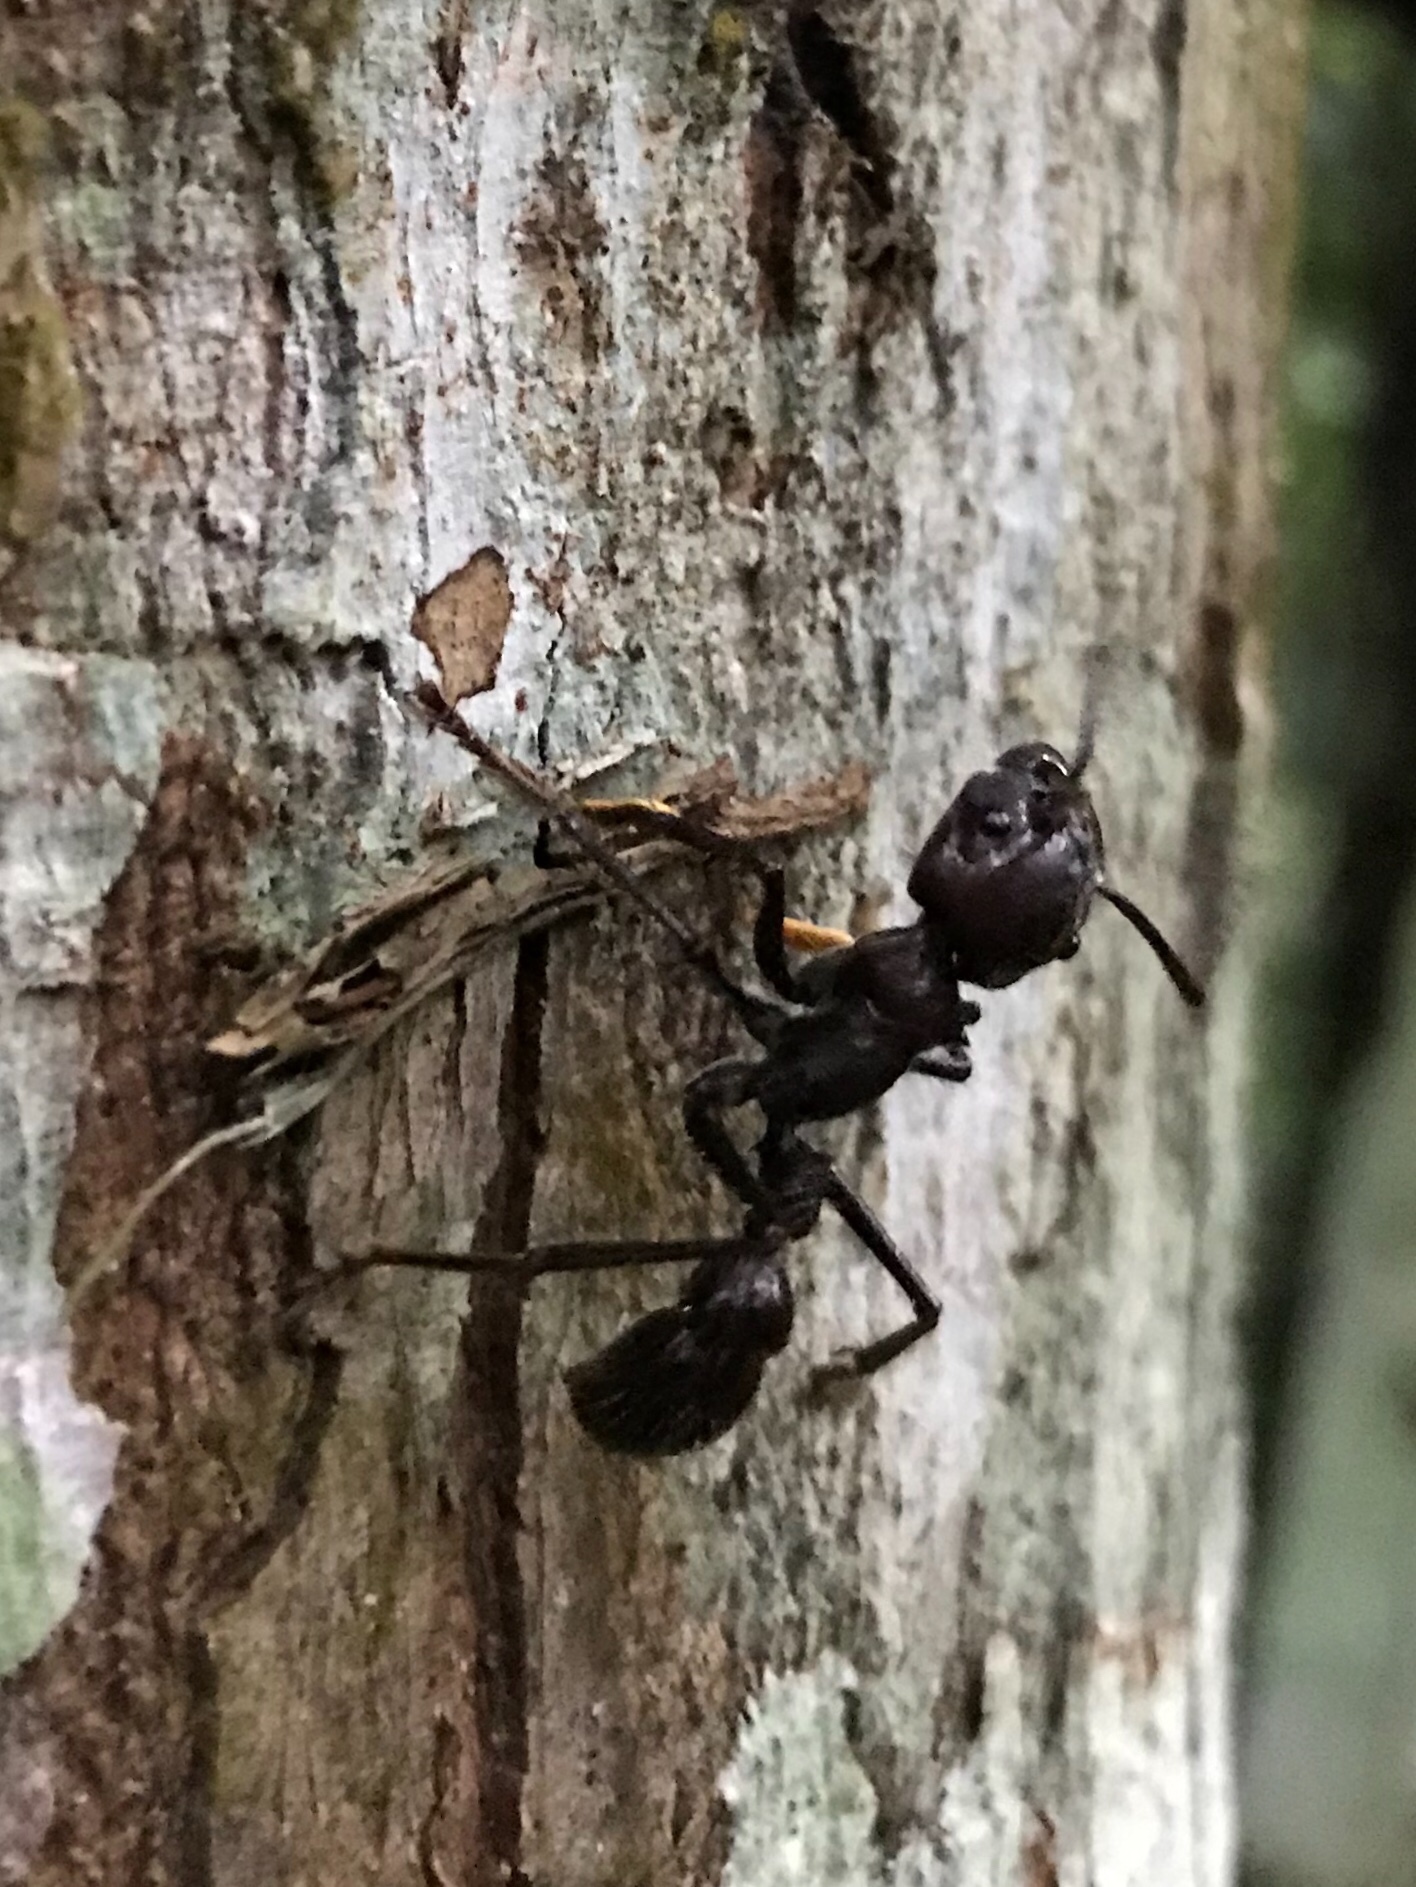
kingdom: Animalia
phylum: Arthropoda
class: Insecta
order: Hymenoptera
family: Formicidae
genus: Paraponera
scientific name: Paraponera clavata
